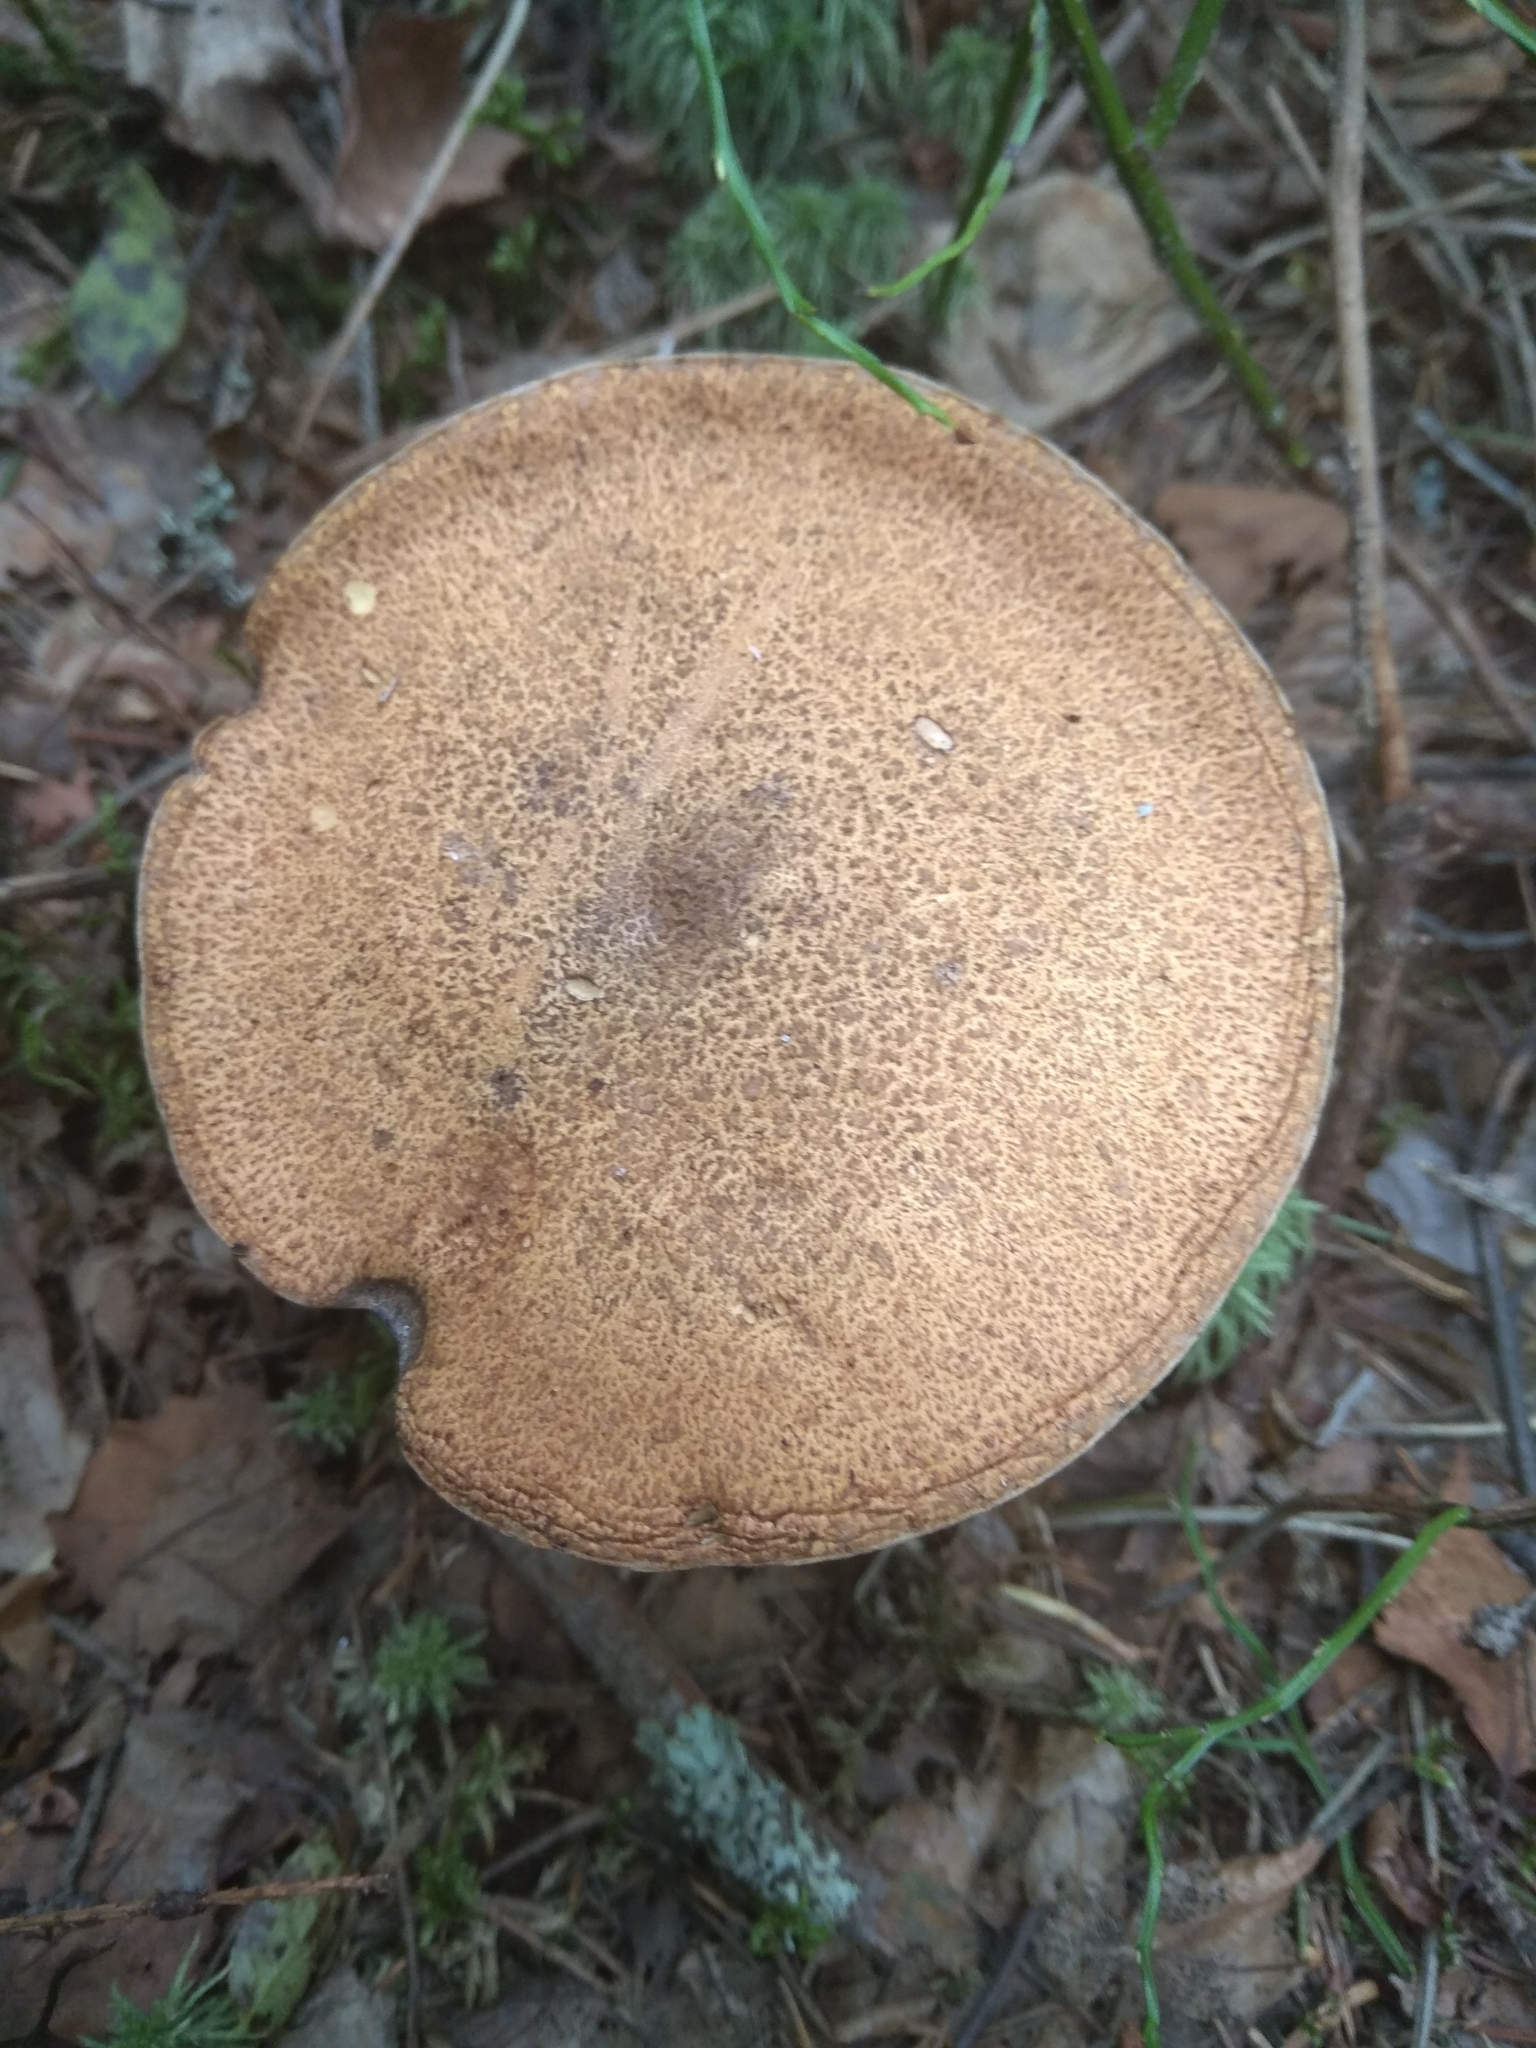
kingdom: Fungi
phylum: Basidiomycota
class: Agaricomycetes
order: Boletales
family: Suillaceae
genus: Suillus
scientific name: Suillus variegatus
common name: Velvet bolete
